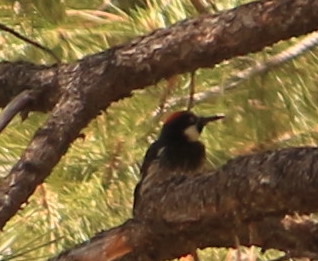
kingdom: Animalia
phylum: Chordata
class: Aves
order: Piciformes
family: Picidae
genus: Melanerpes
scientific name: Melanerpes formicivorus
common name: Acorn woodpecker
